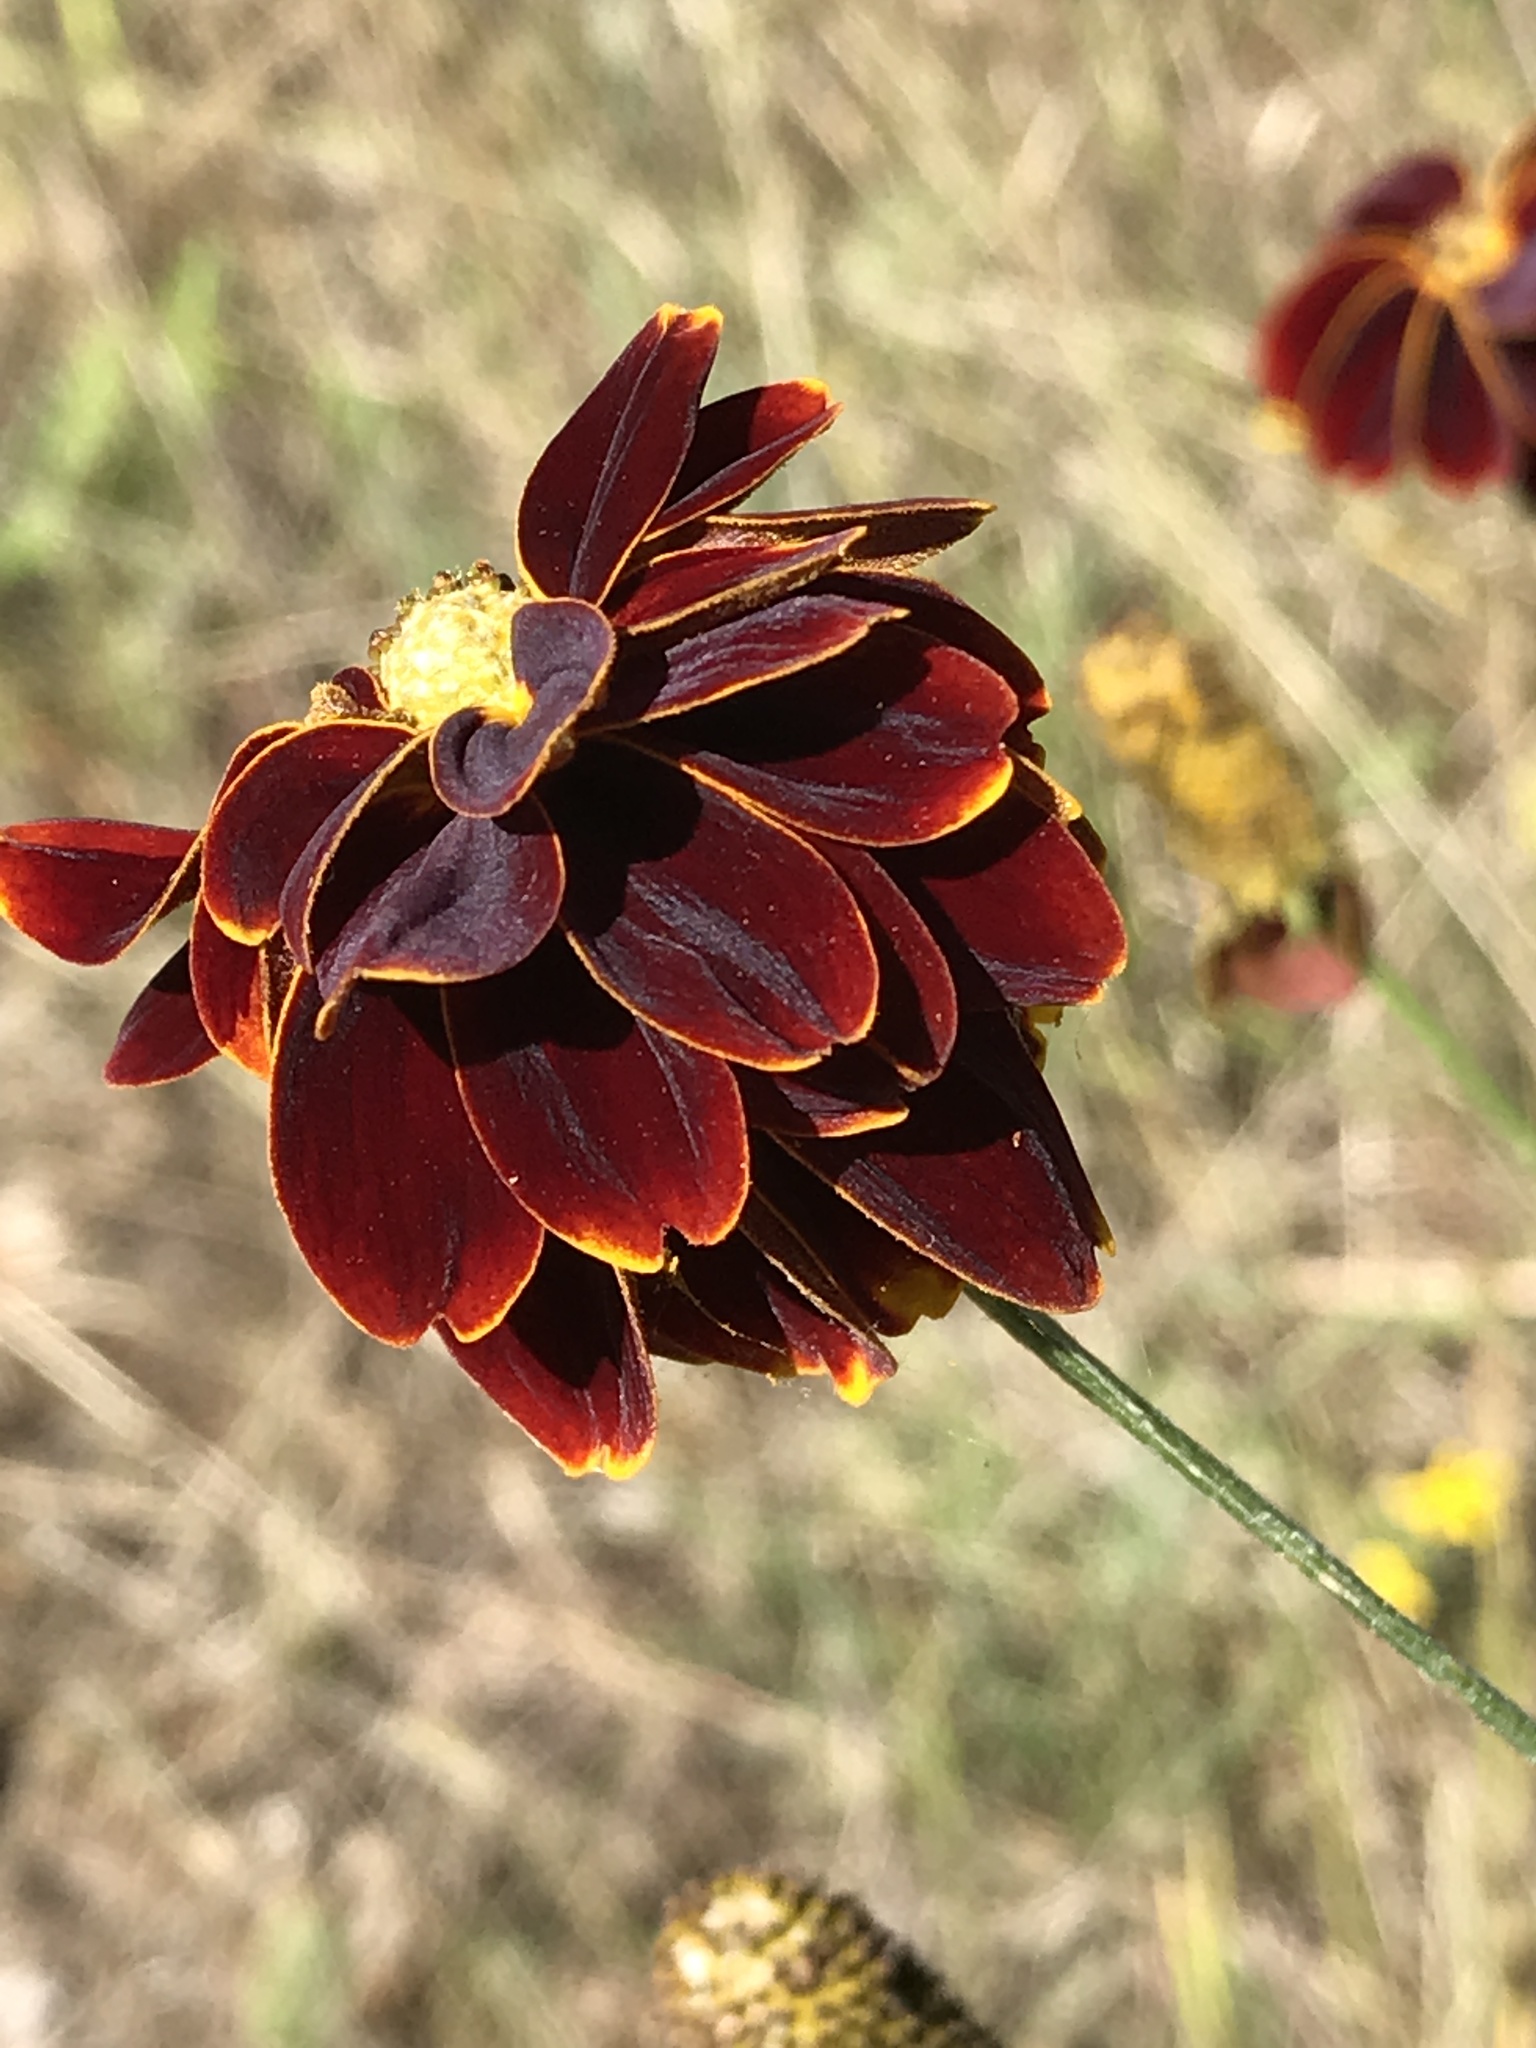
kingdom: Plantae
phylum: Tracheophyta
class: Magnoliopsida
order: Asterales
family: Asteraceae
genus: Ratibida
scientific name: Ratibida columnifera
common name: Prairie coneflower
